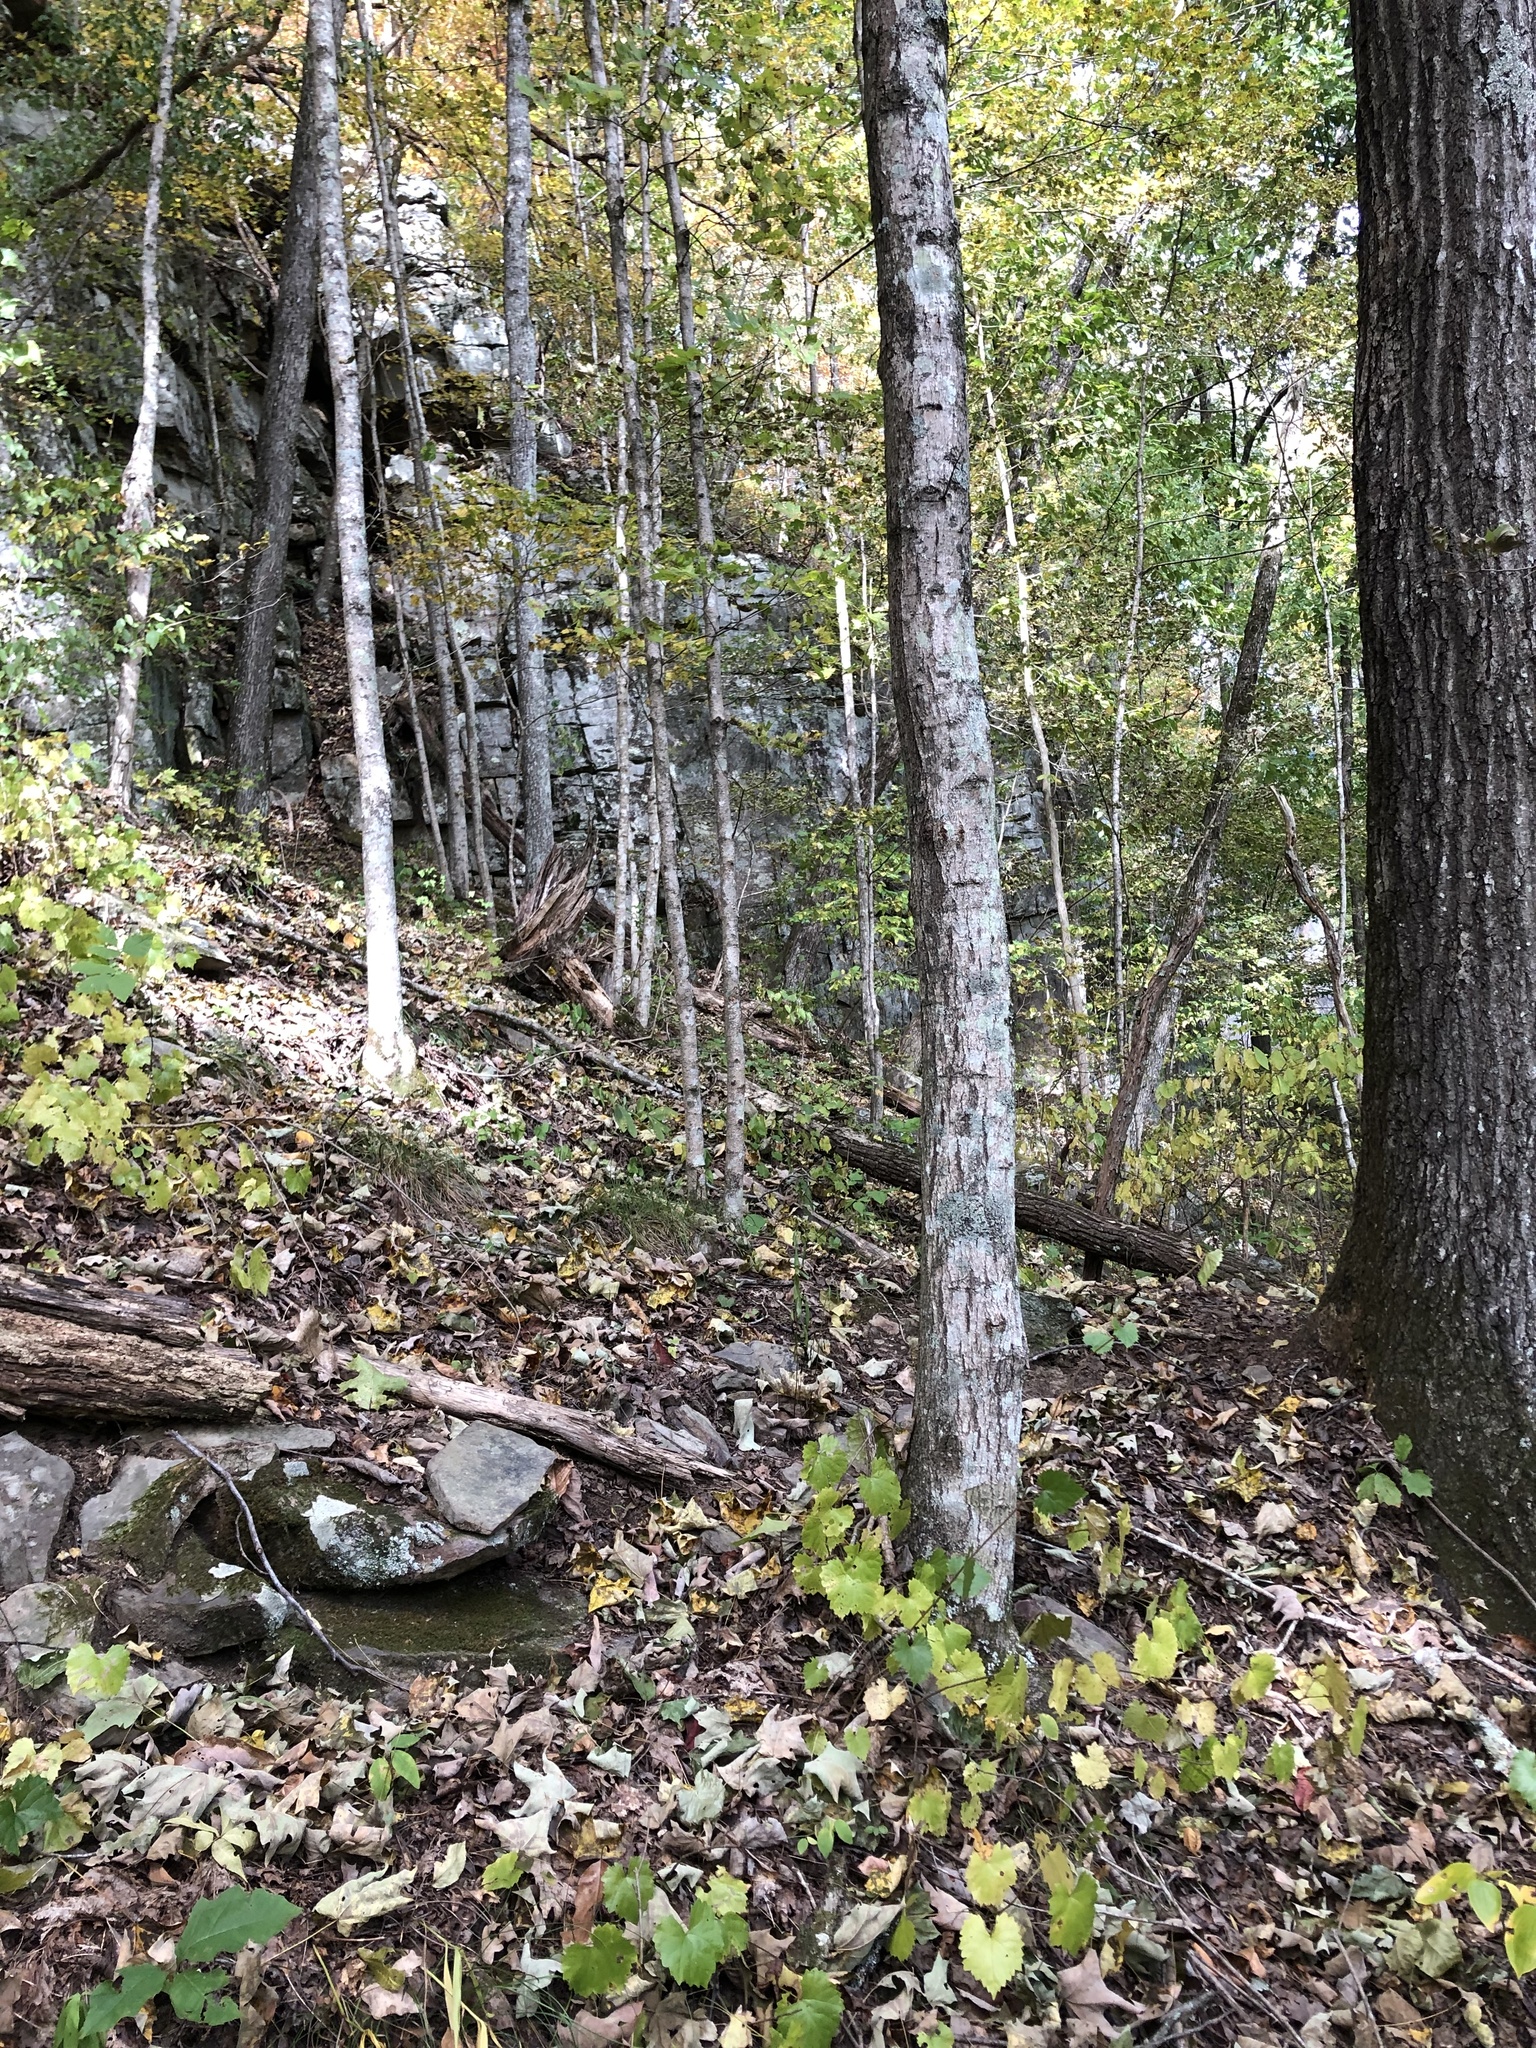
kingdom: Plantae
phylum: Tracheophyta
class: Magnoliopsida
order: Sapindales
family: Rutaceae
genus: Ptelea
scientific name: Ptelea trifoliata
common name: Common hop-tree
